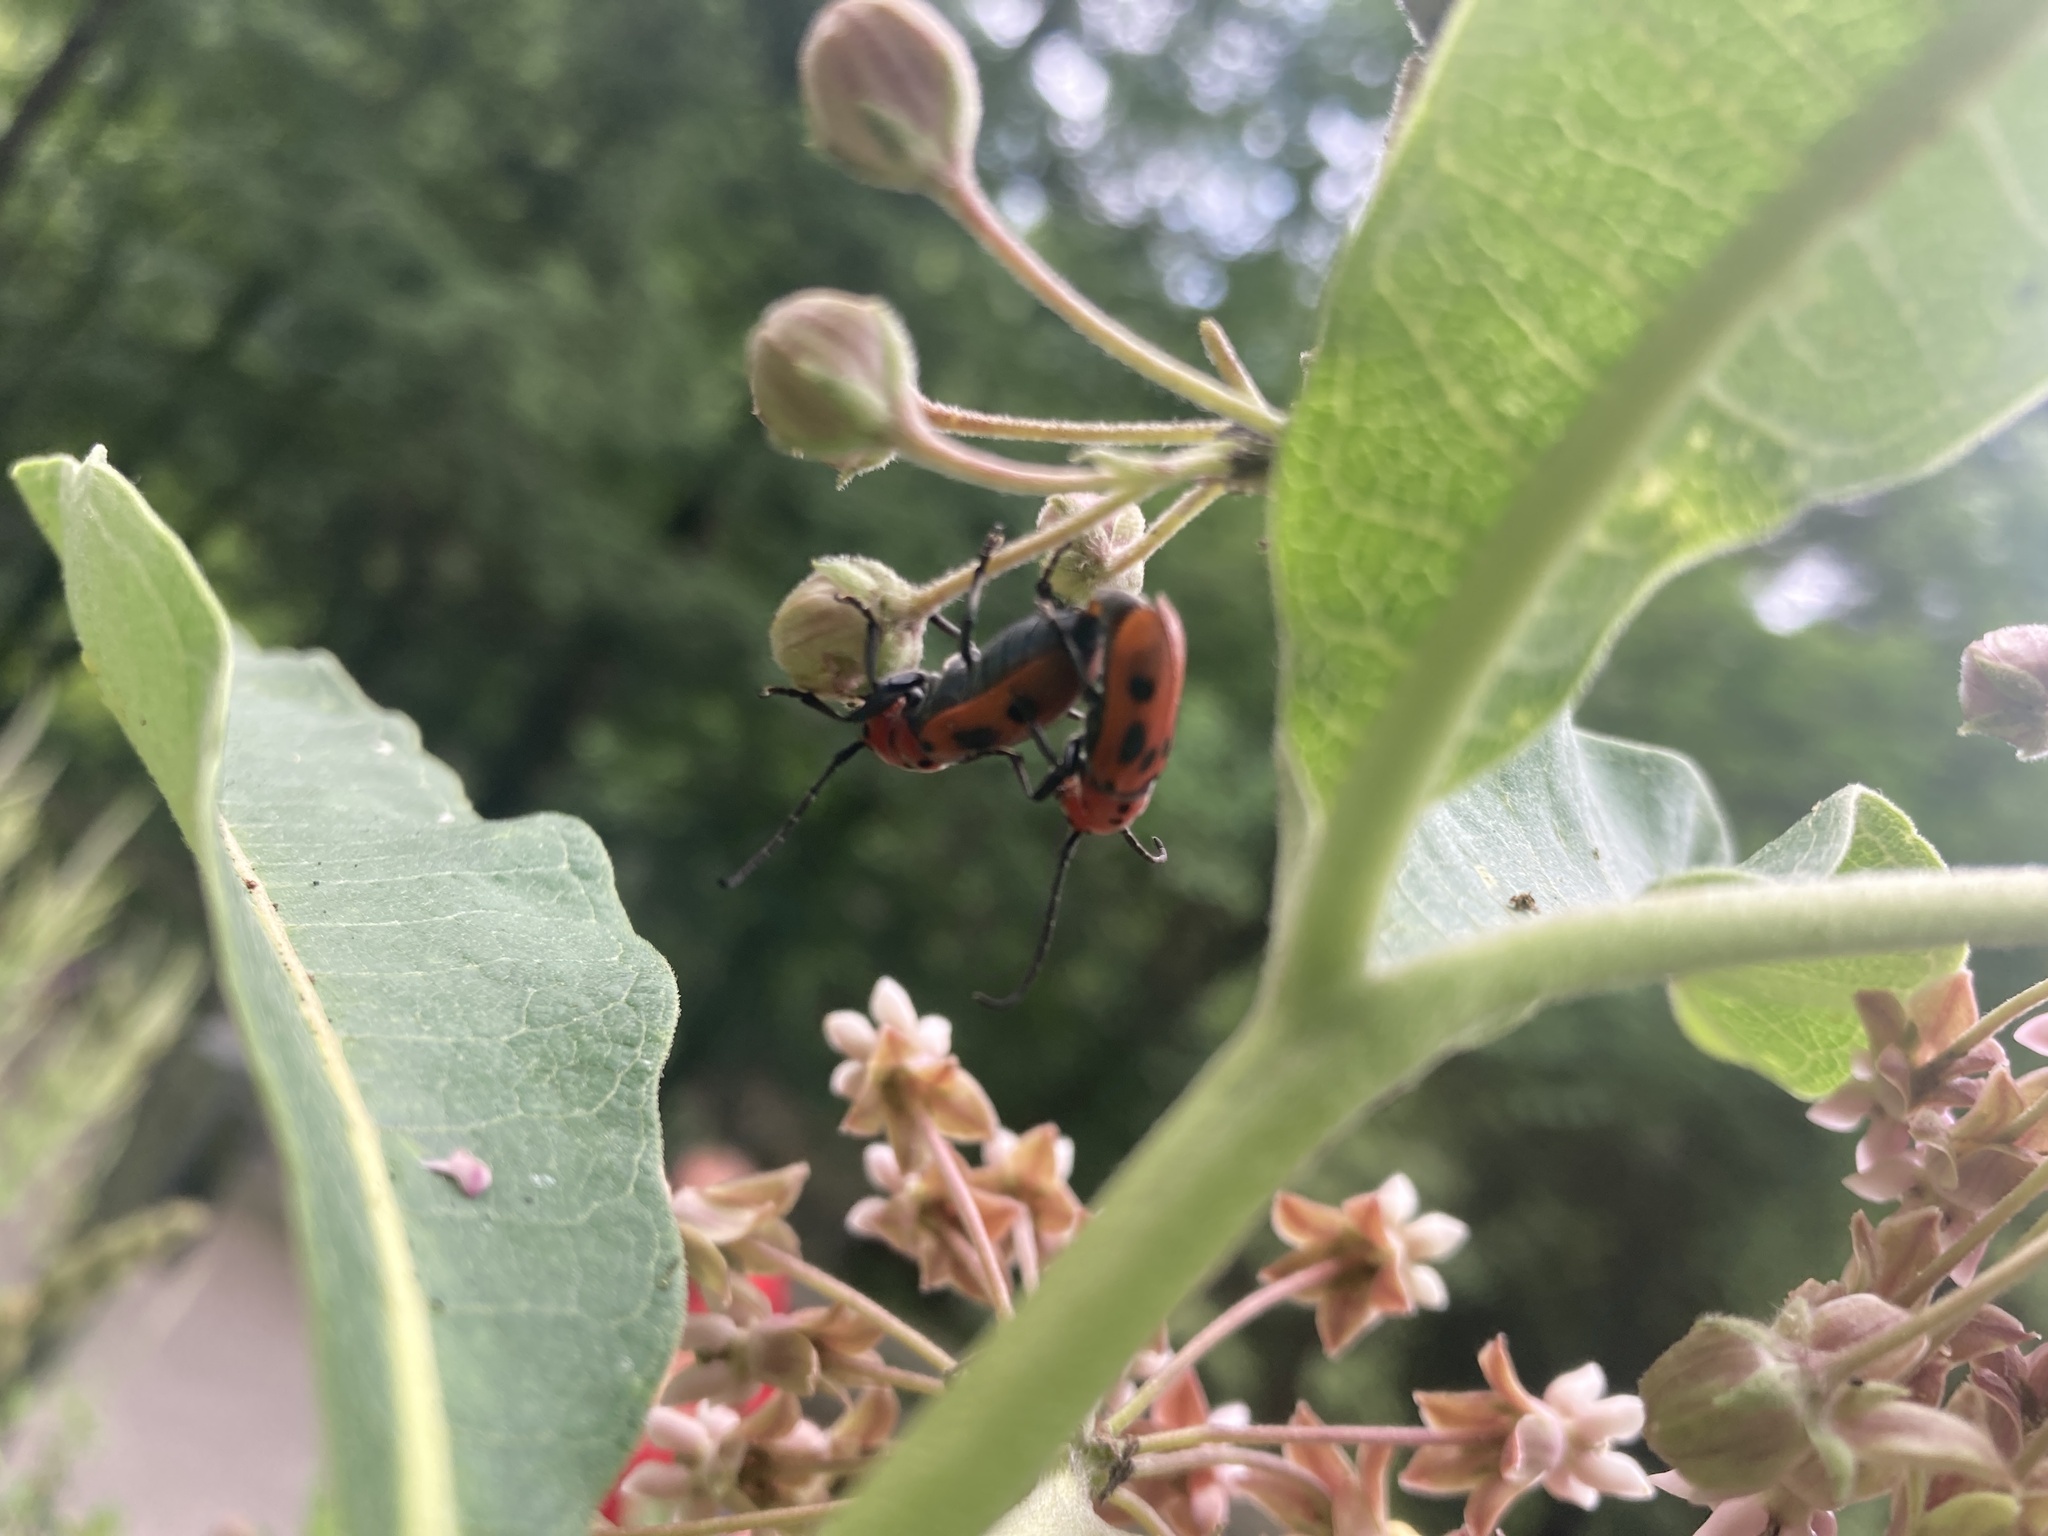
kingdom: Animalia
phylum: Arthropoda
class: Insecta
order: Coleoptera
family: Cerambycidae
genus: Tetraopes
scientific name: Tetraopes tetrophthalmus
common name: Red milkweed beetle
